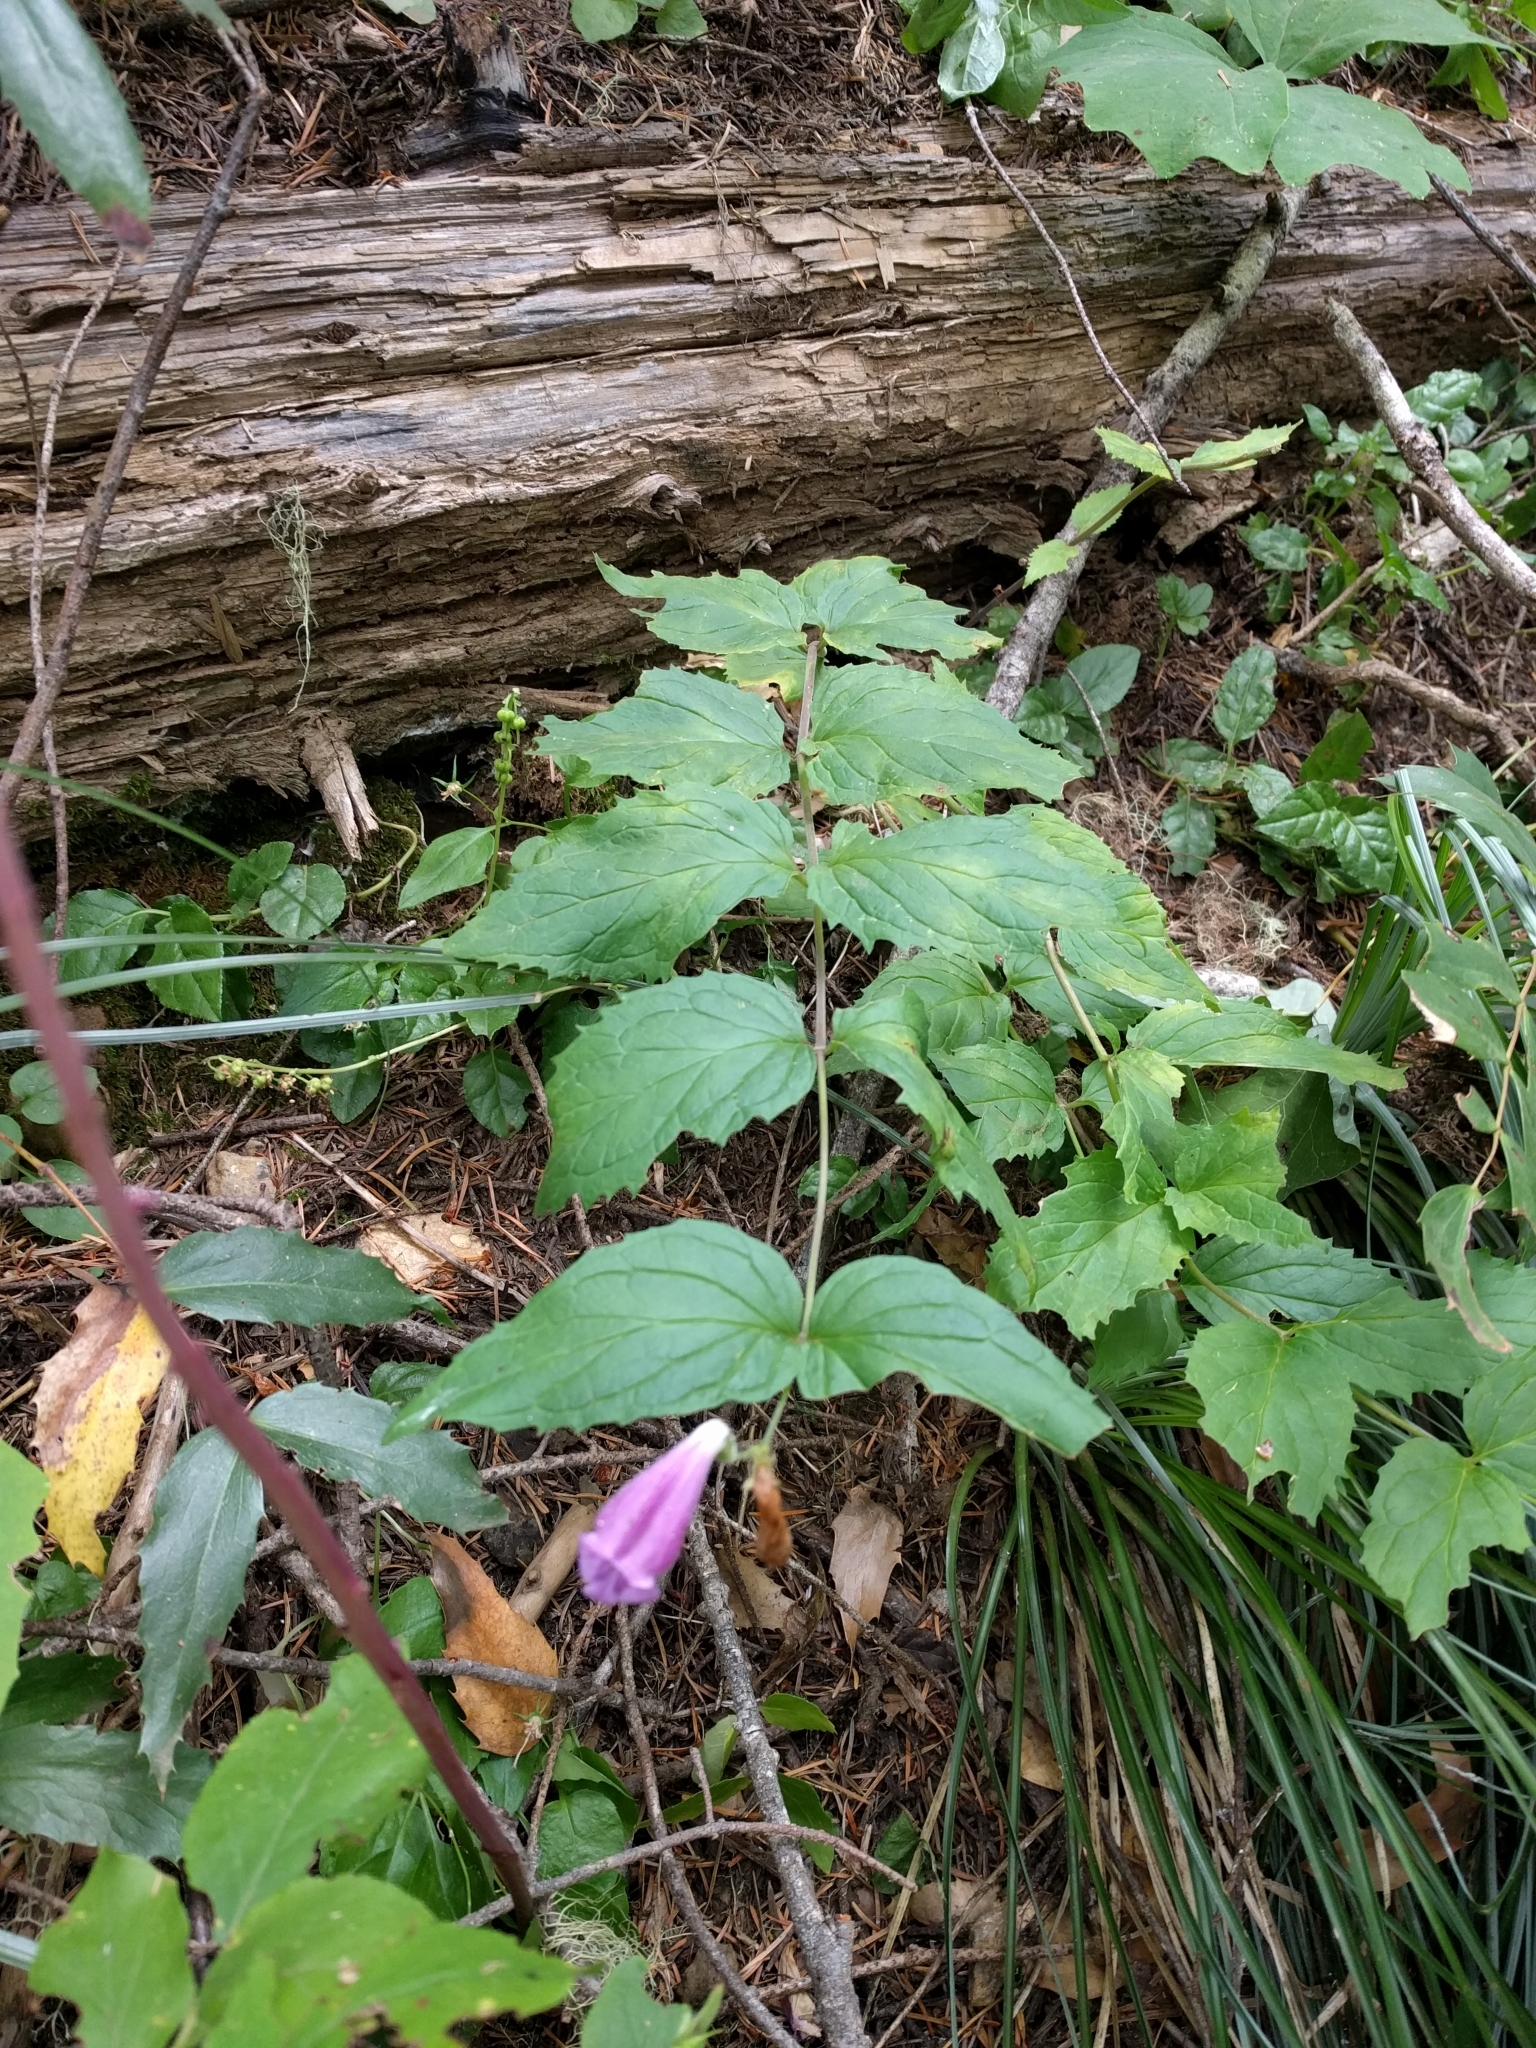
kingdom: Plantae
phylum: Tracheophyta
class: Magnoliopsida
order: Lamiales
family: Plantaginaceae
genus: Nothochelone
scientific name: Nothochelone nemorosa
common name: Woodland beardtongue
